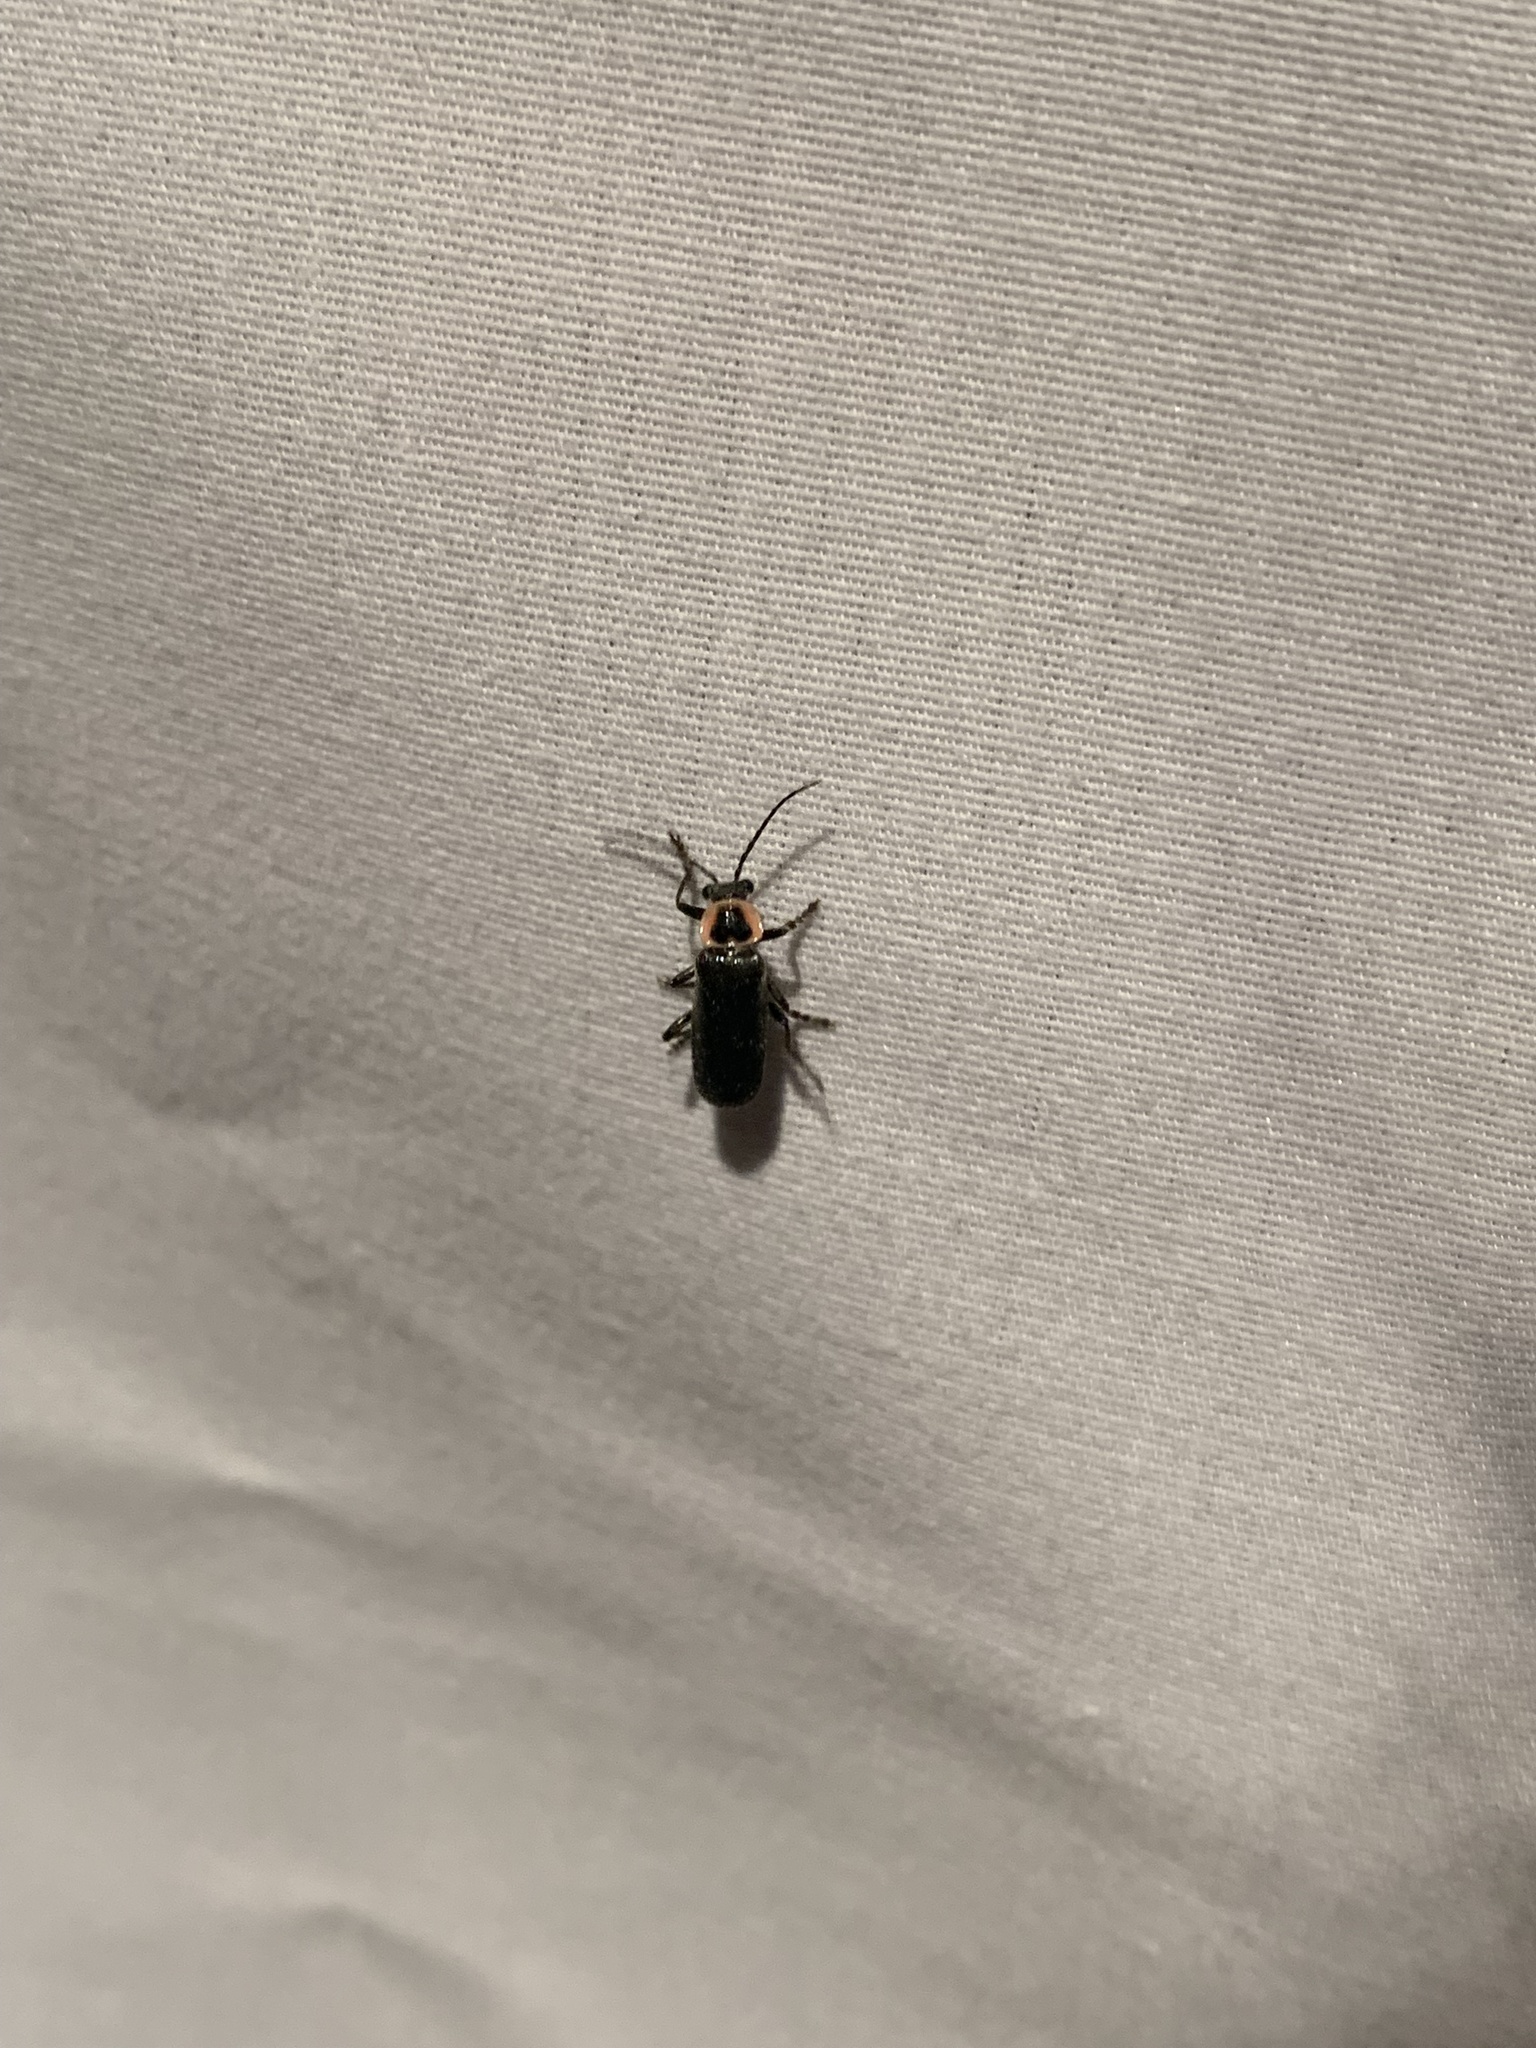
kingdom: Animalia
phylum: Arthropoda
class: Insecta
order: Coleoptera
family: Cantharidae
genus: Rhaxonycha
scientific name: Rhaxonycha carolina
